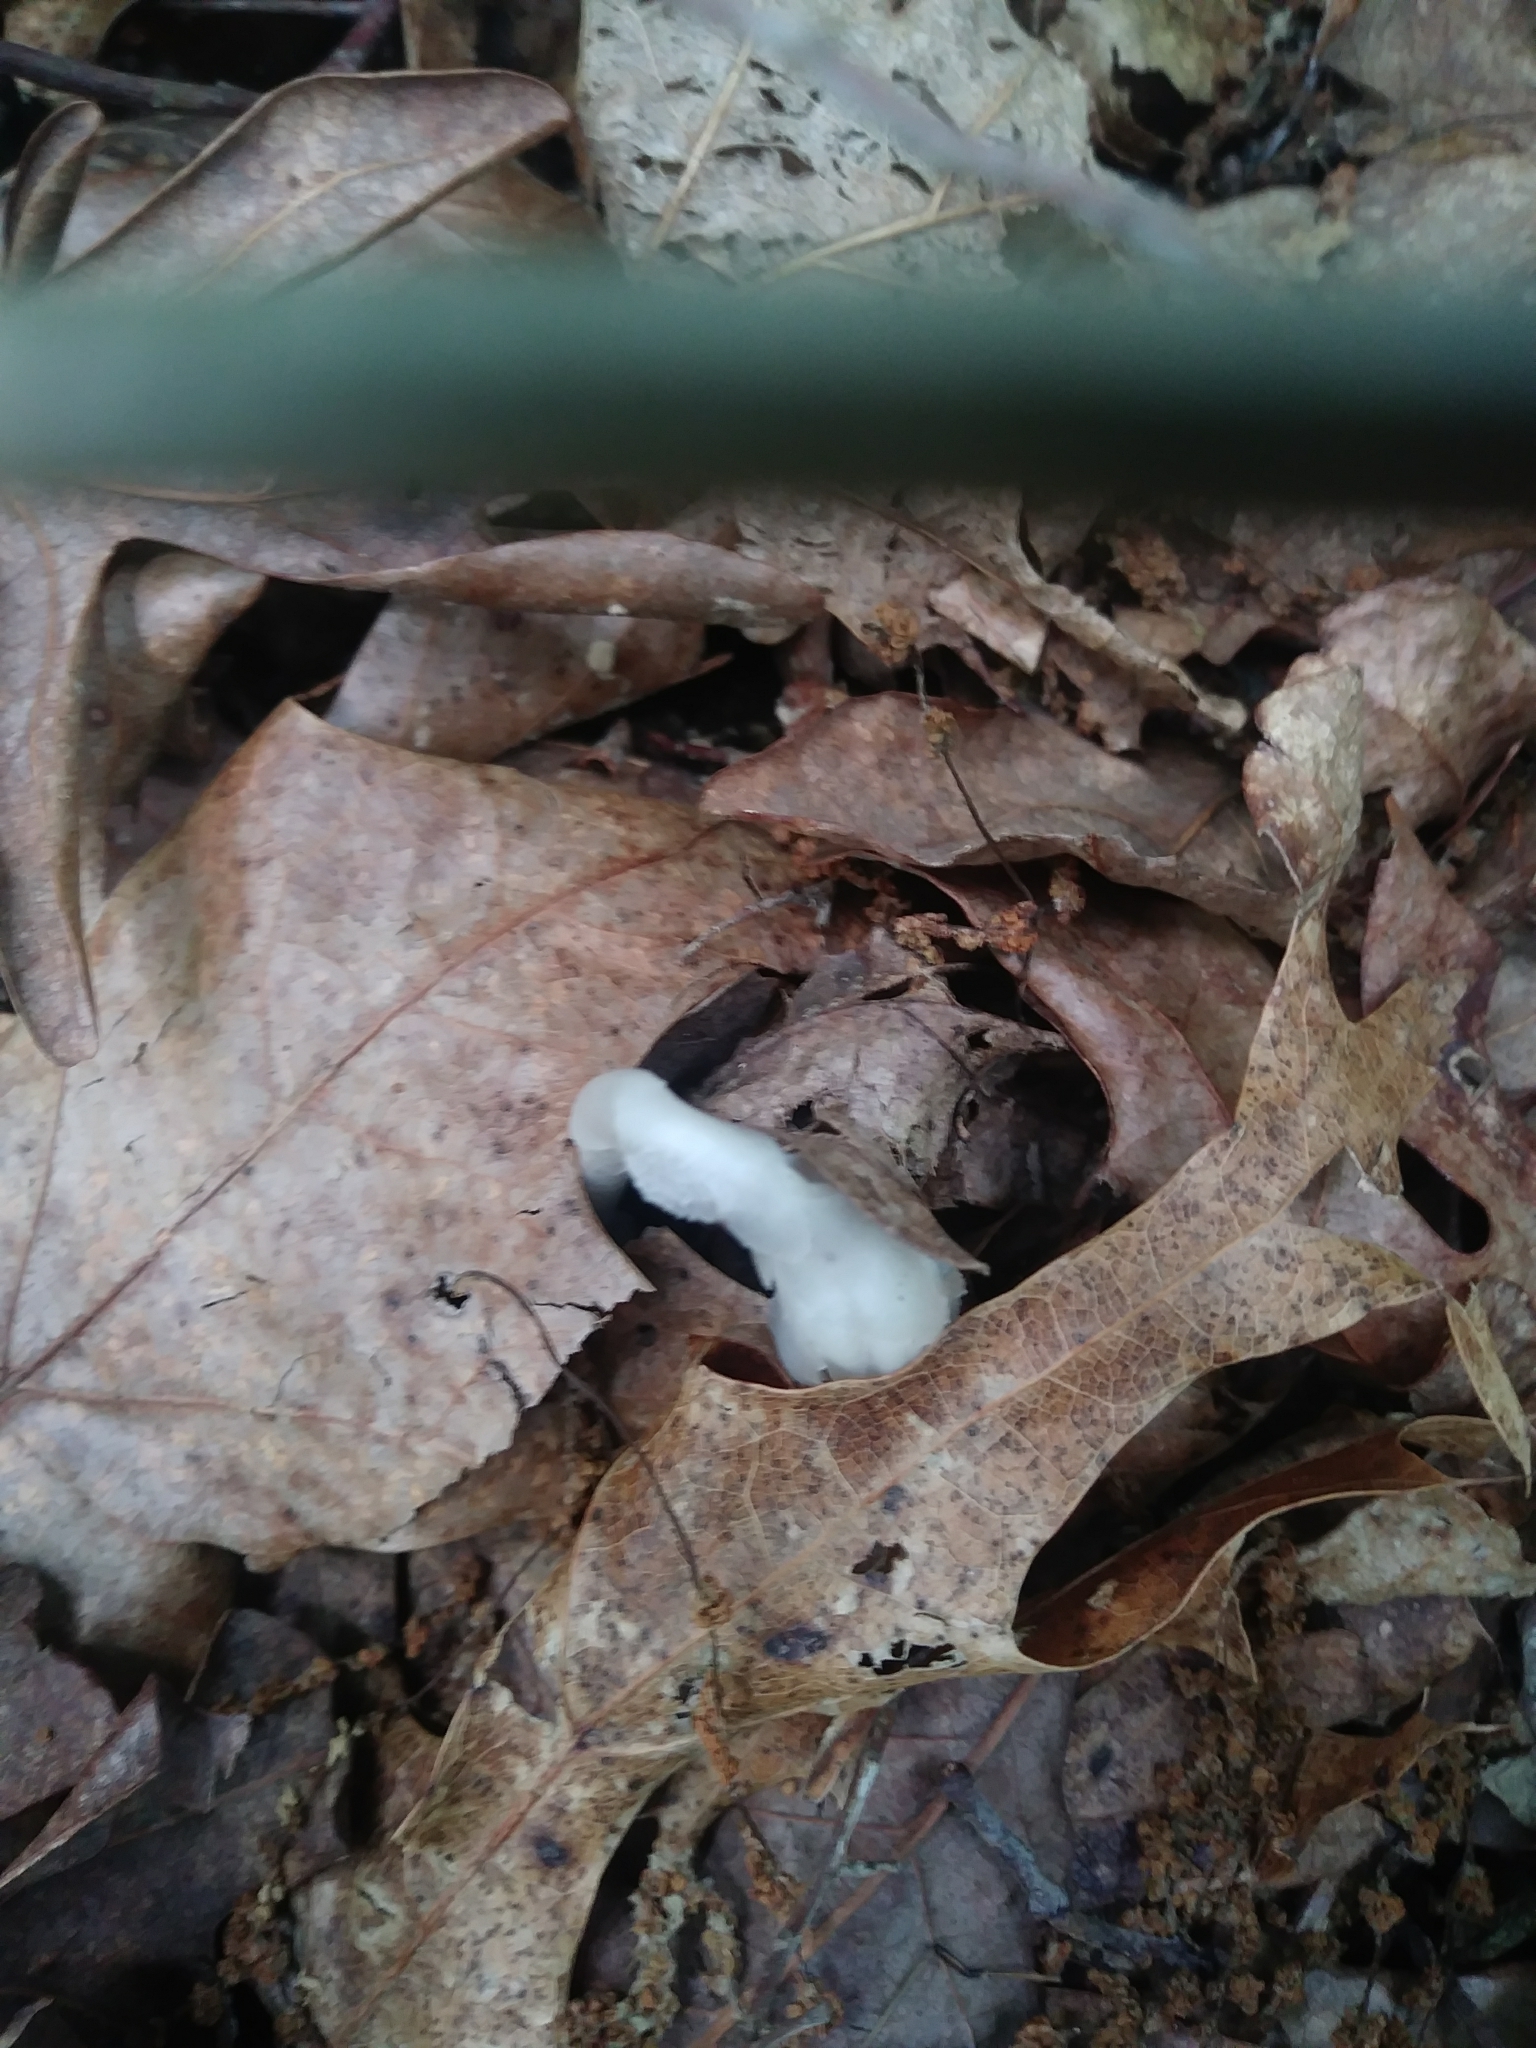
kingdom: Plantae
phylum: Tracheophyta
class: Magnoliopsida
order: Ericales
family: Ericaceae
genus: Monotropa
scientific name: Monotropa uniflora
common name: Convulsion root
